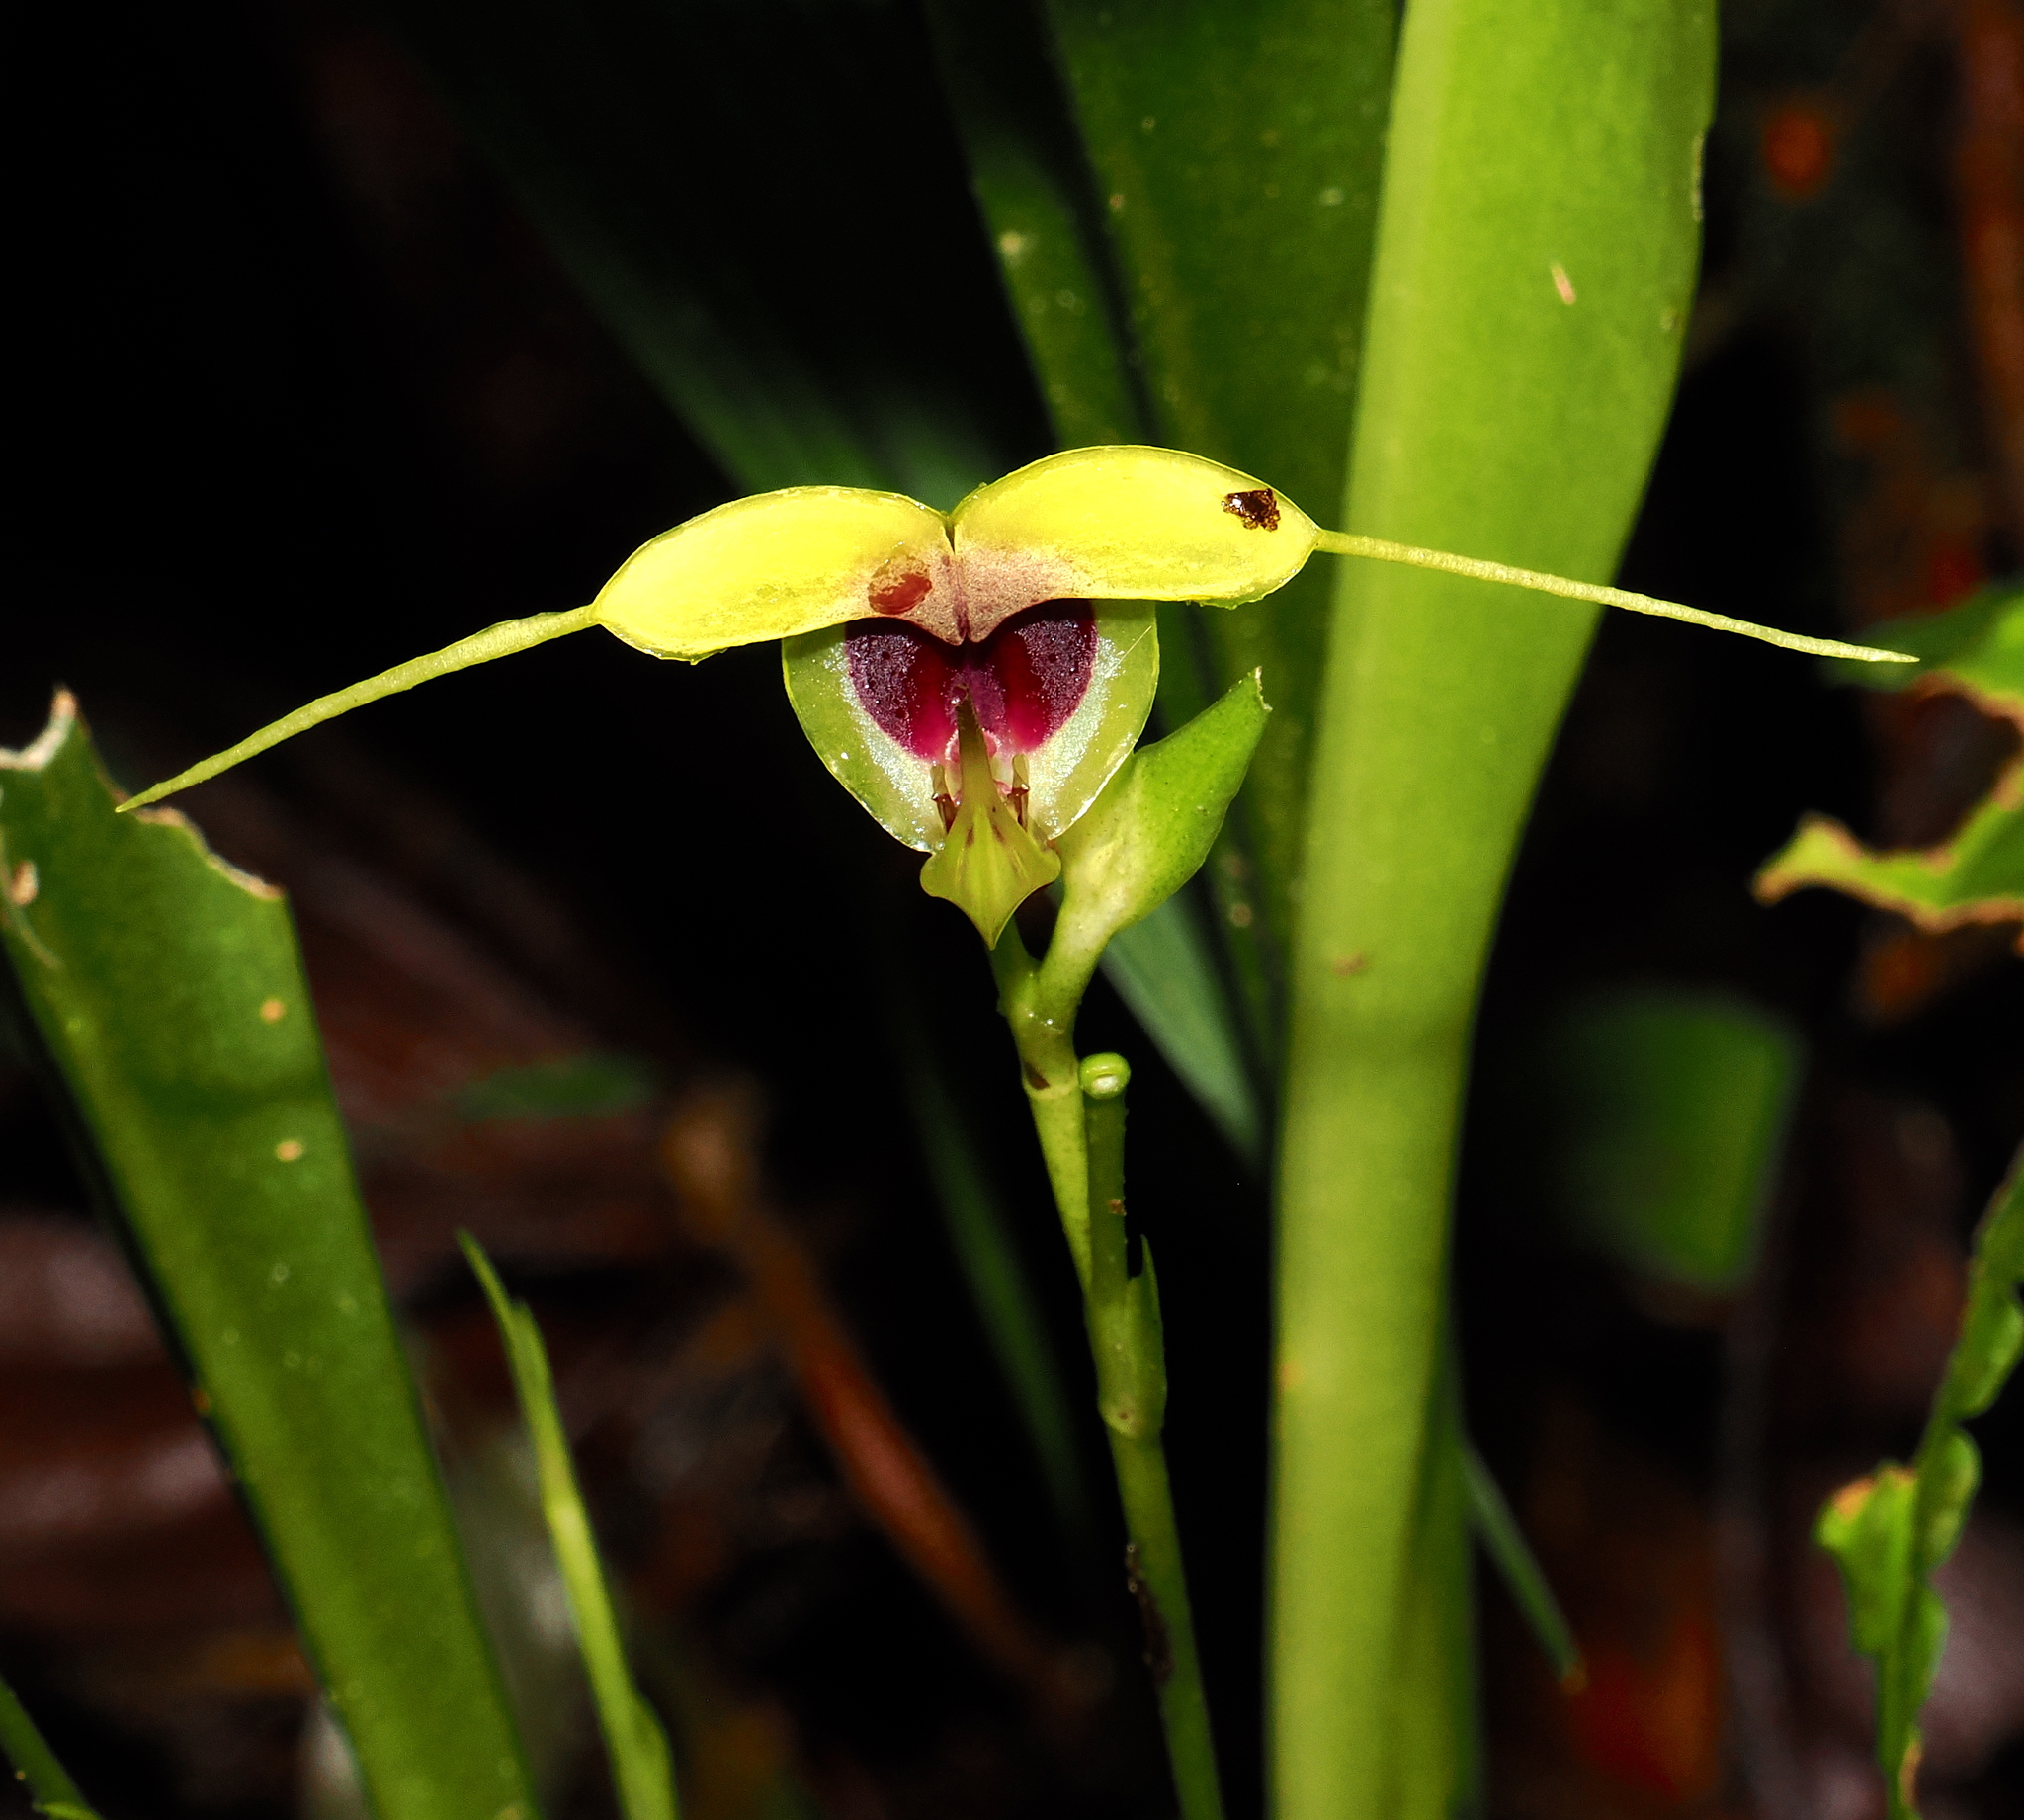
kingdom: Plantae
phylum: Tracheophyta
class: Liliopsida
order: Asparagales
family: Orchidaceae
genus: Scaphosepalum
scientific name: Scaphosepalum grande
